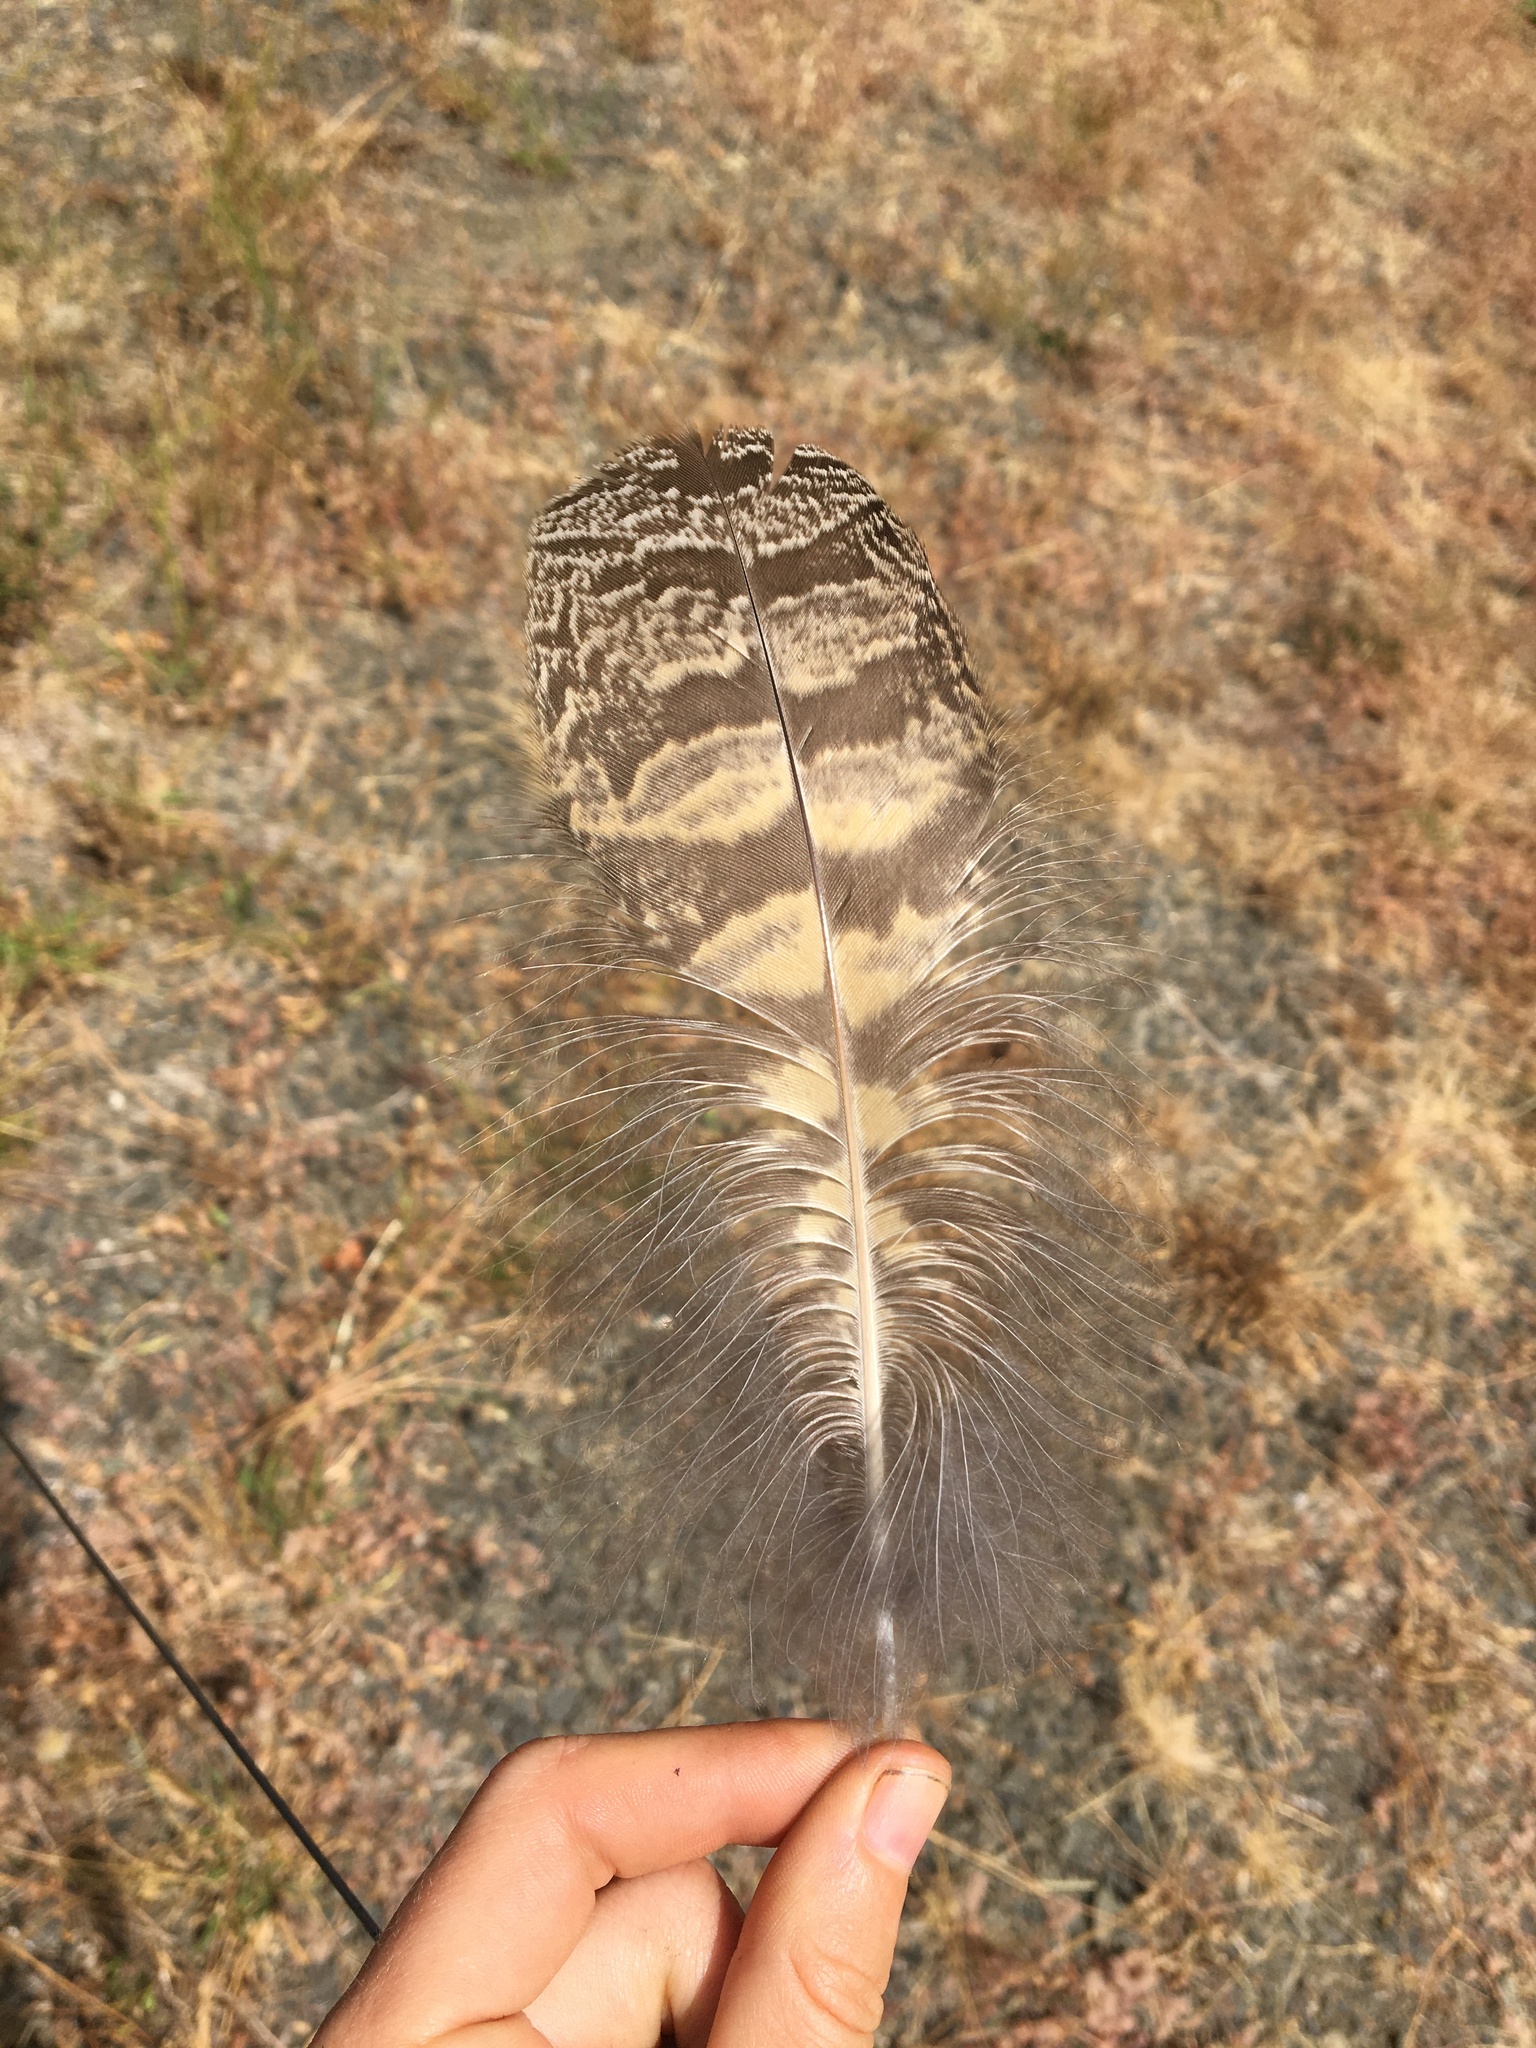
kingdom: Animalia
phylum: Chordata
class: Aves
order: Strigiformes
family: Strigidae
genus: Bubo
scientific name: Bubo virginianus
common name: Great horned owl
